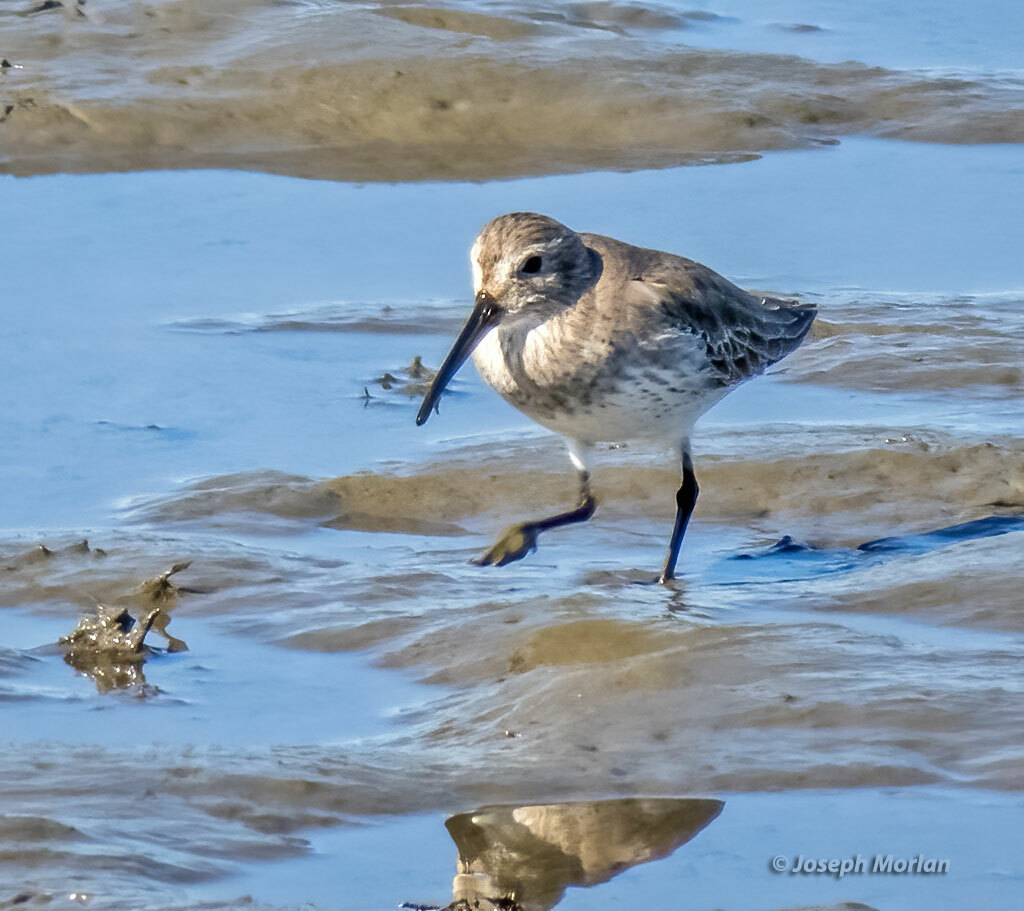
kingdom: Animalia
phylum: Chordata
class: Aves
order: Charadriiformes
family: Scolopacidae
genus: Calidris
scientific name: Calidris alpina
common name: Dunlin
